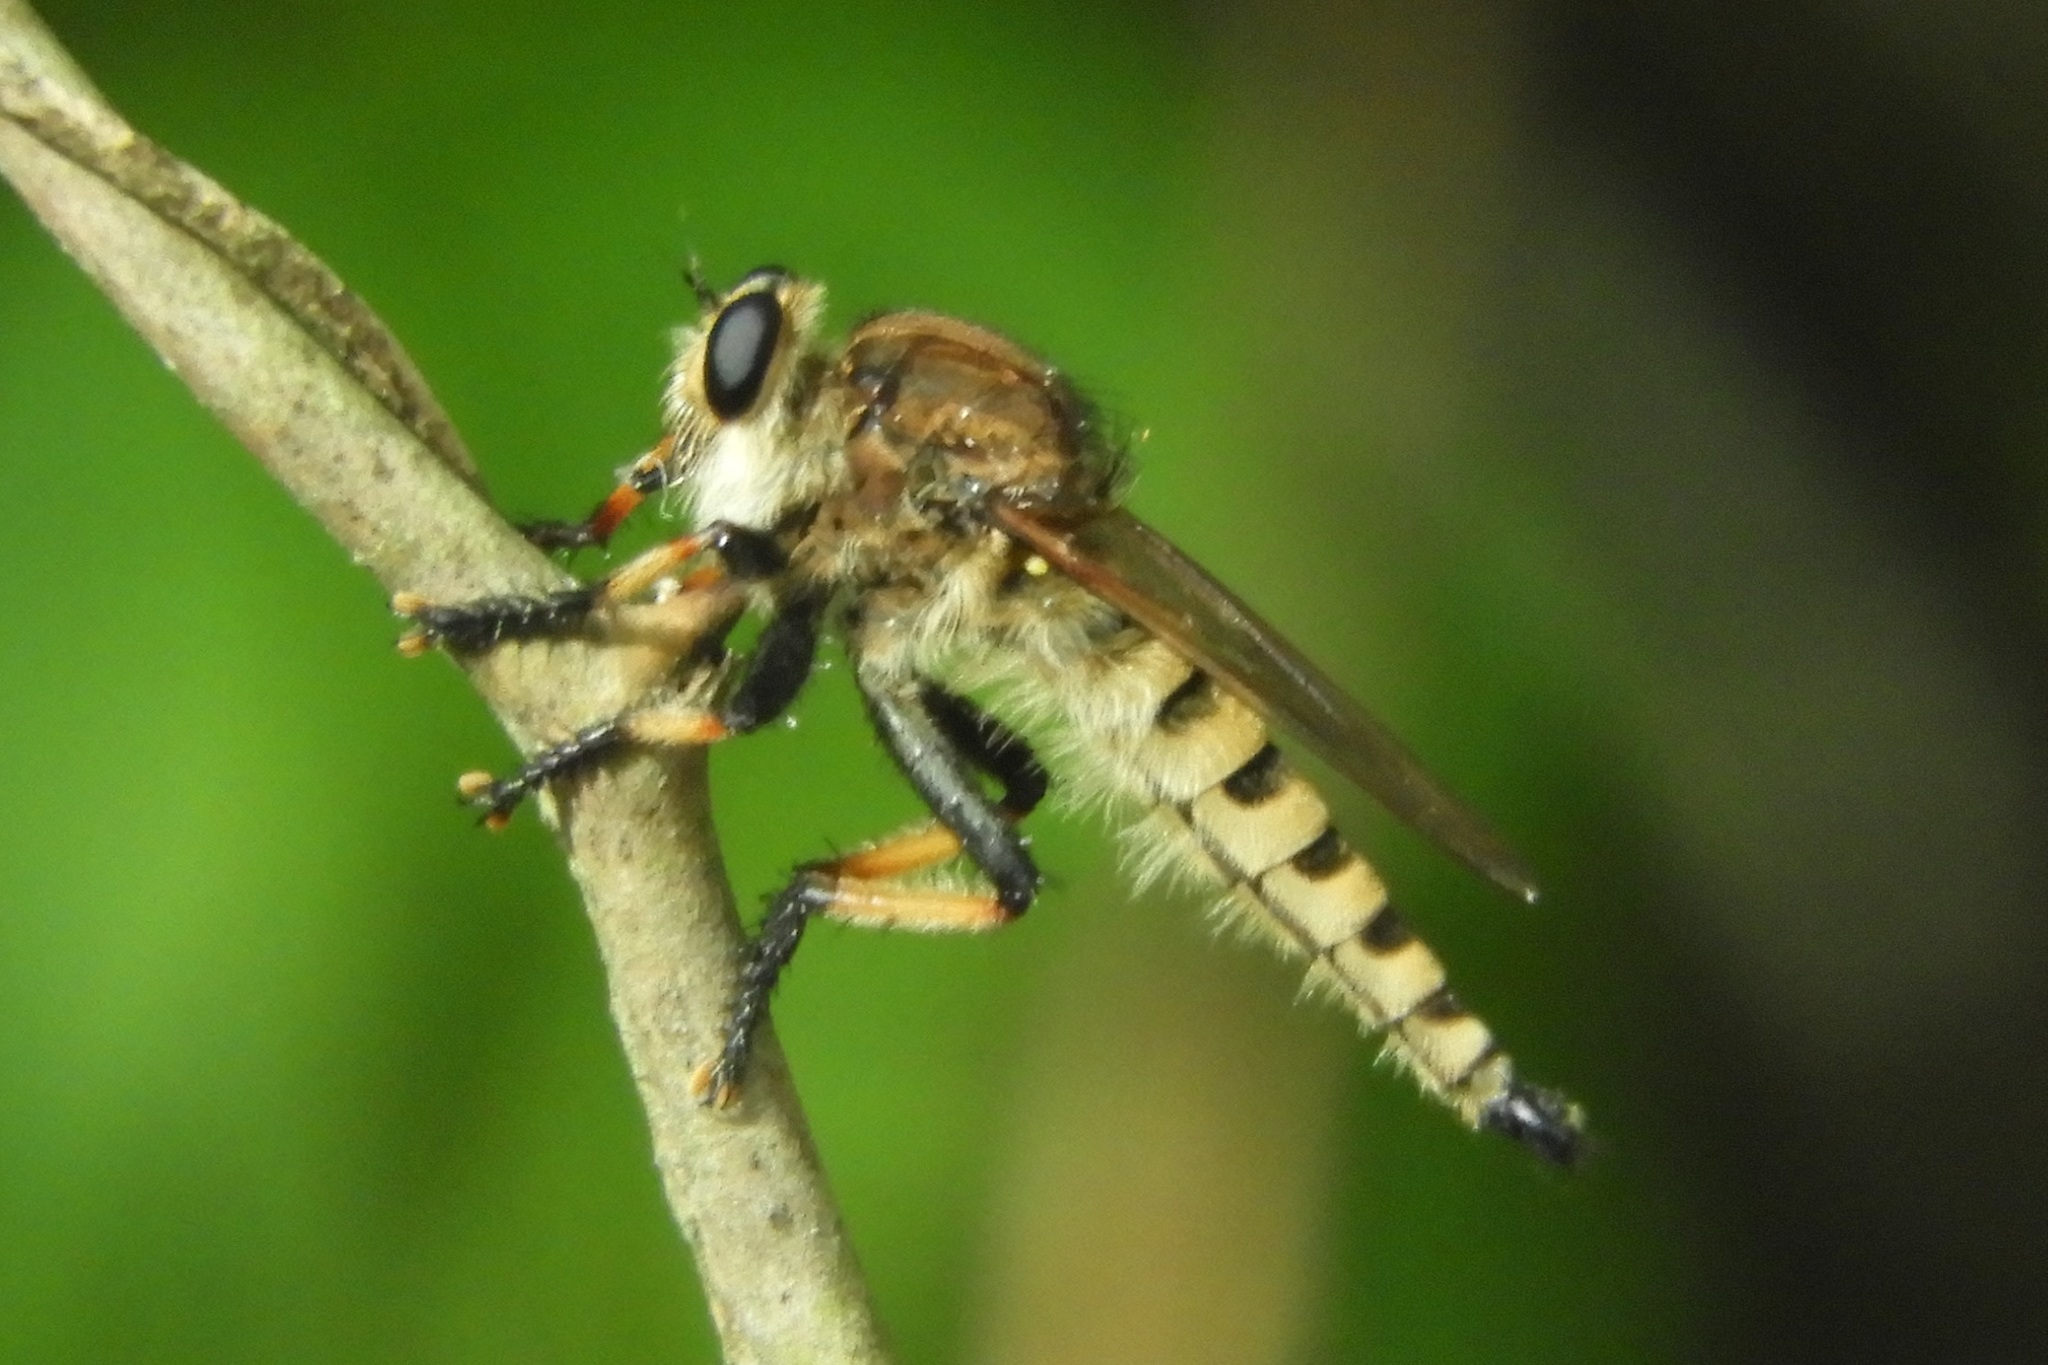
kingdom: Animalia
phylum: Arthropoda
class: Insecta
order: Diptera
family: Asilidae
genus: Promachus
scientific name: Promachus rufipes
